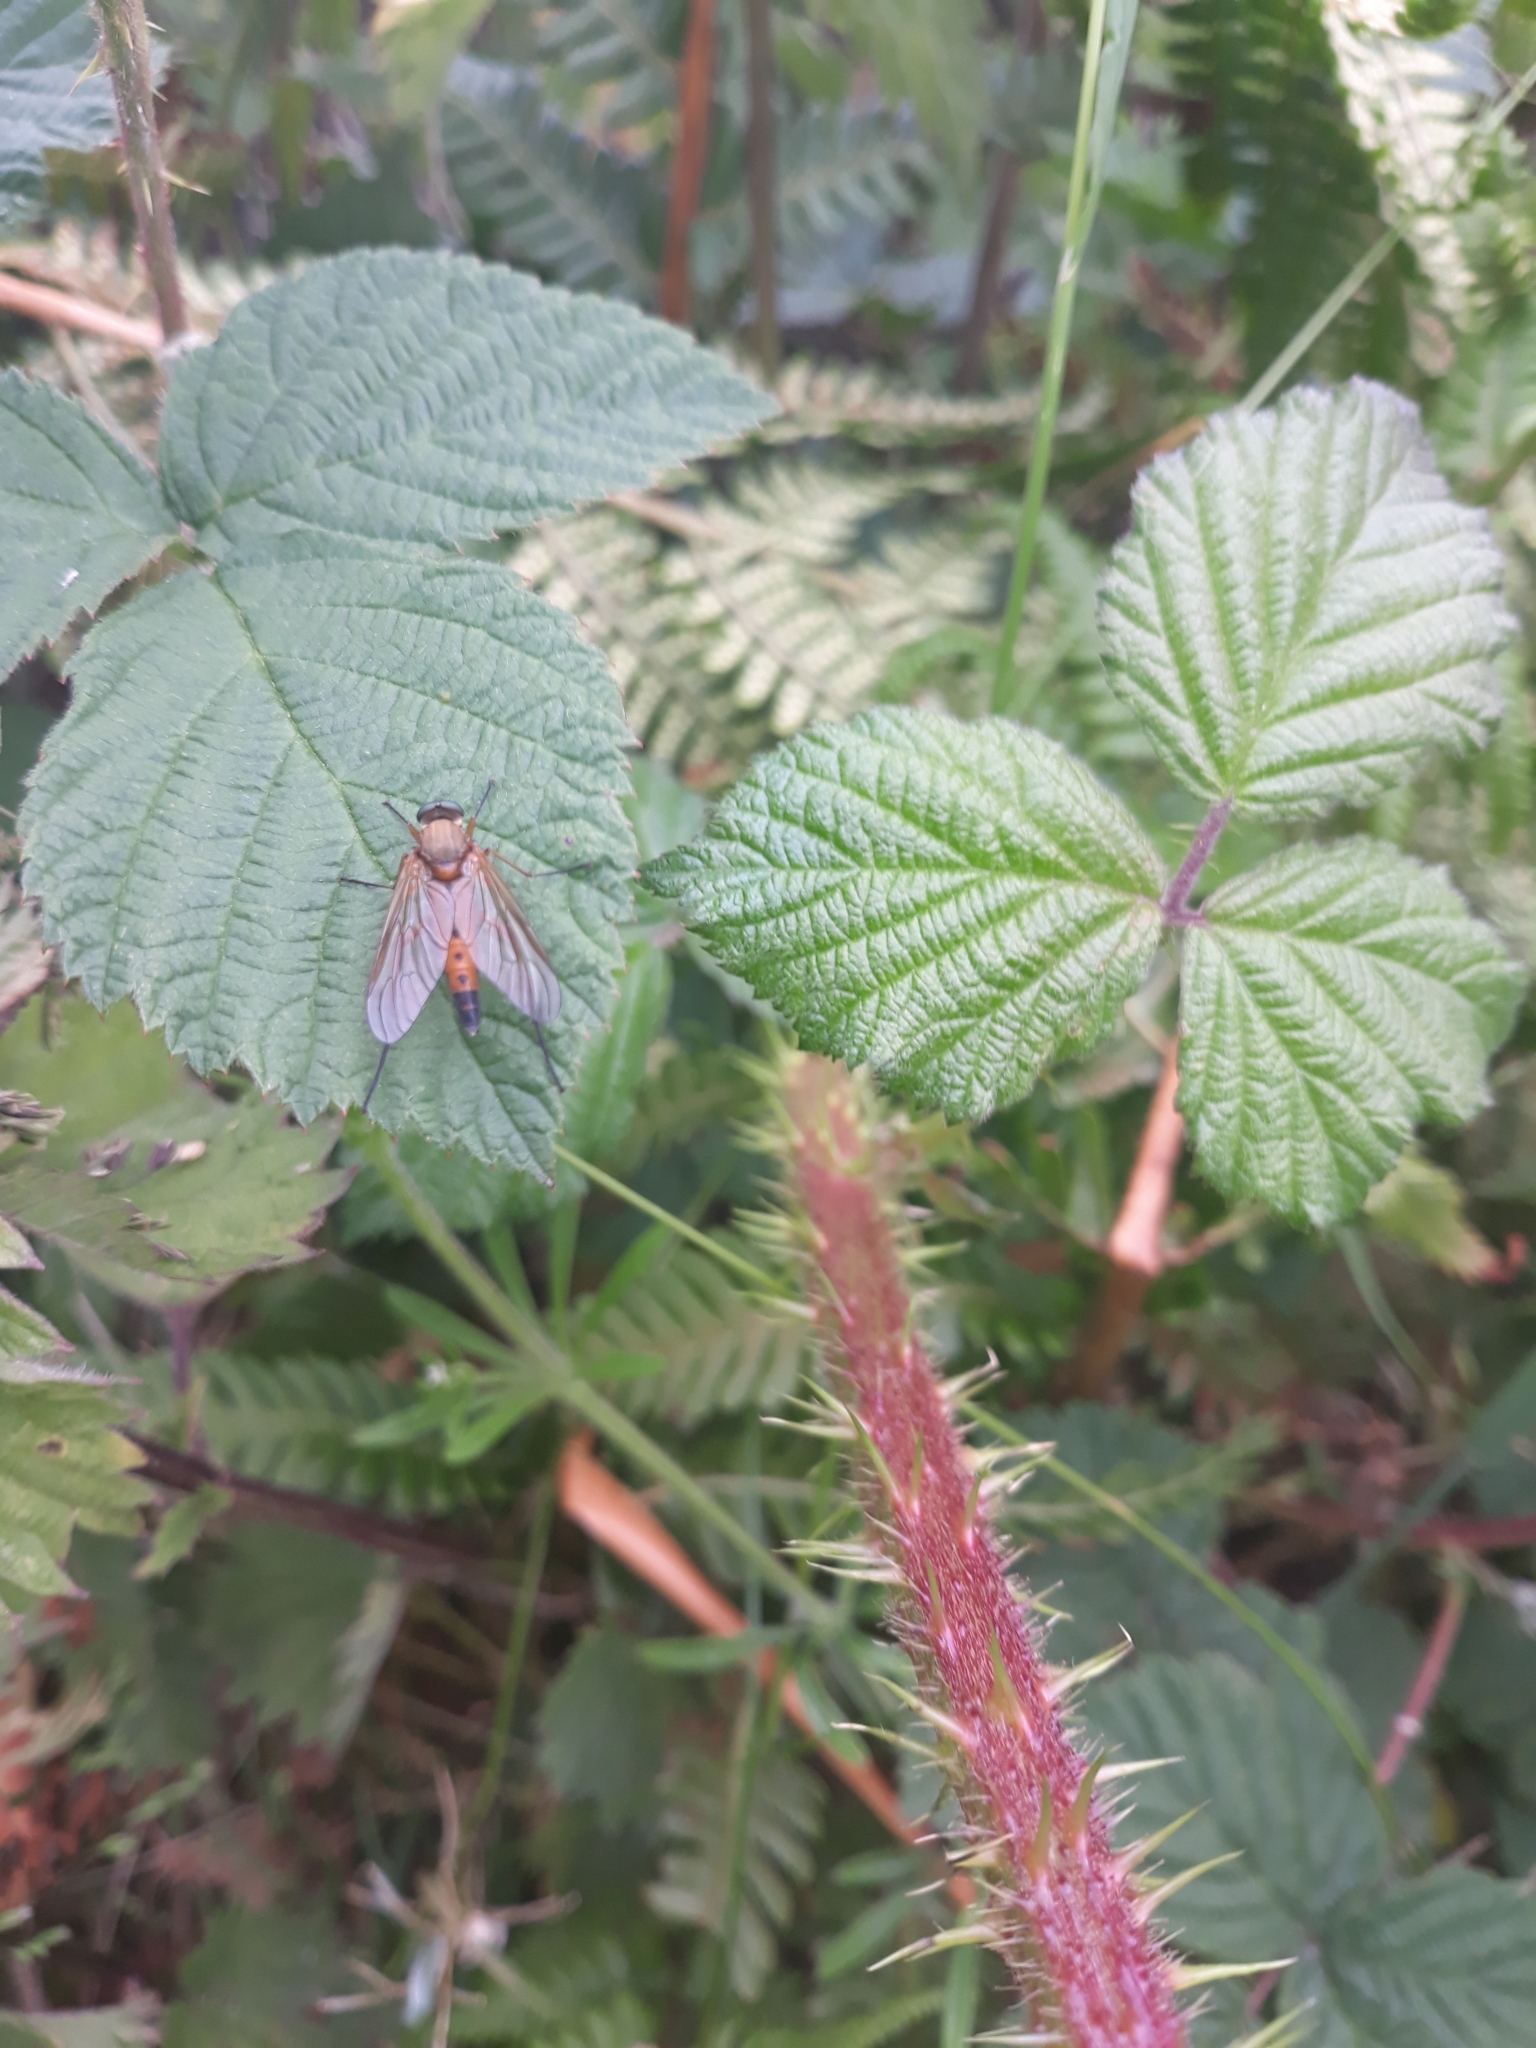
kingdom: Animalia
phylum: Arthropoda
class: Insecta
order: Diptera
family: Rhagionidae
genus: Rhagio
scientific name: Rhagio tringaria
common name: Marsh snipefly
